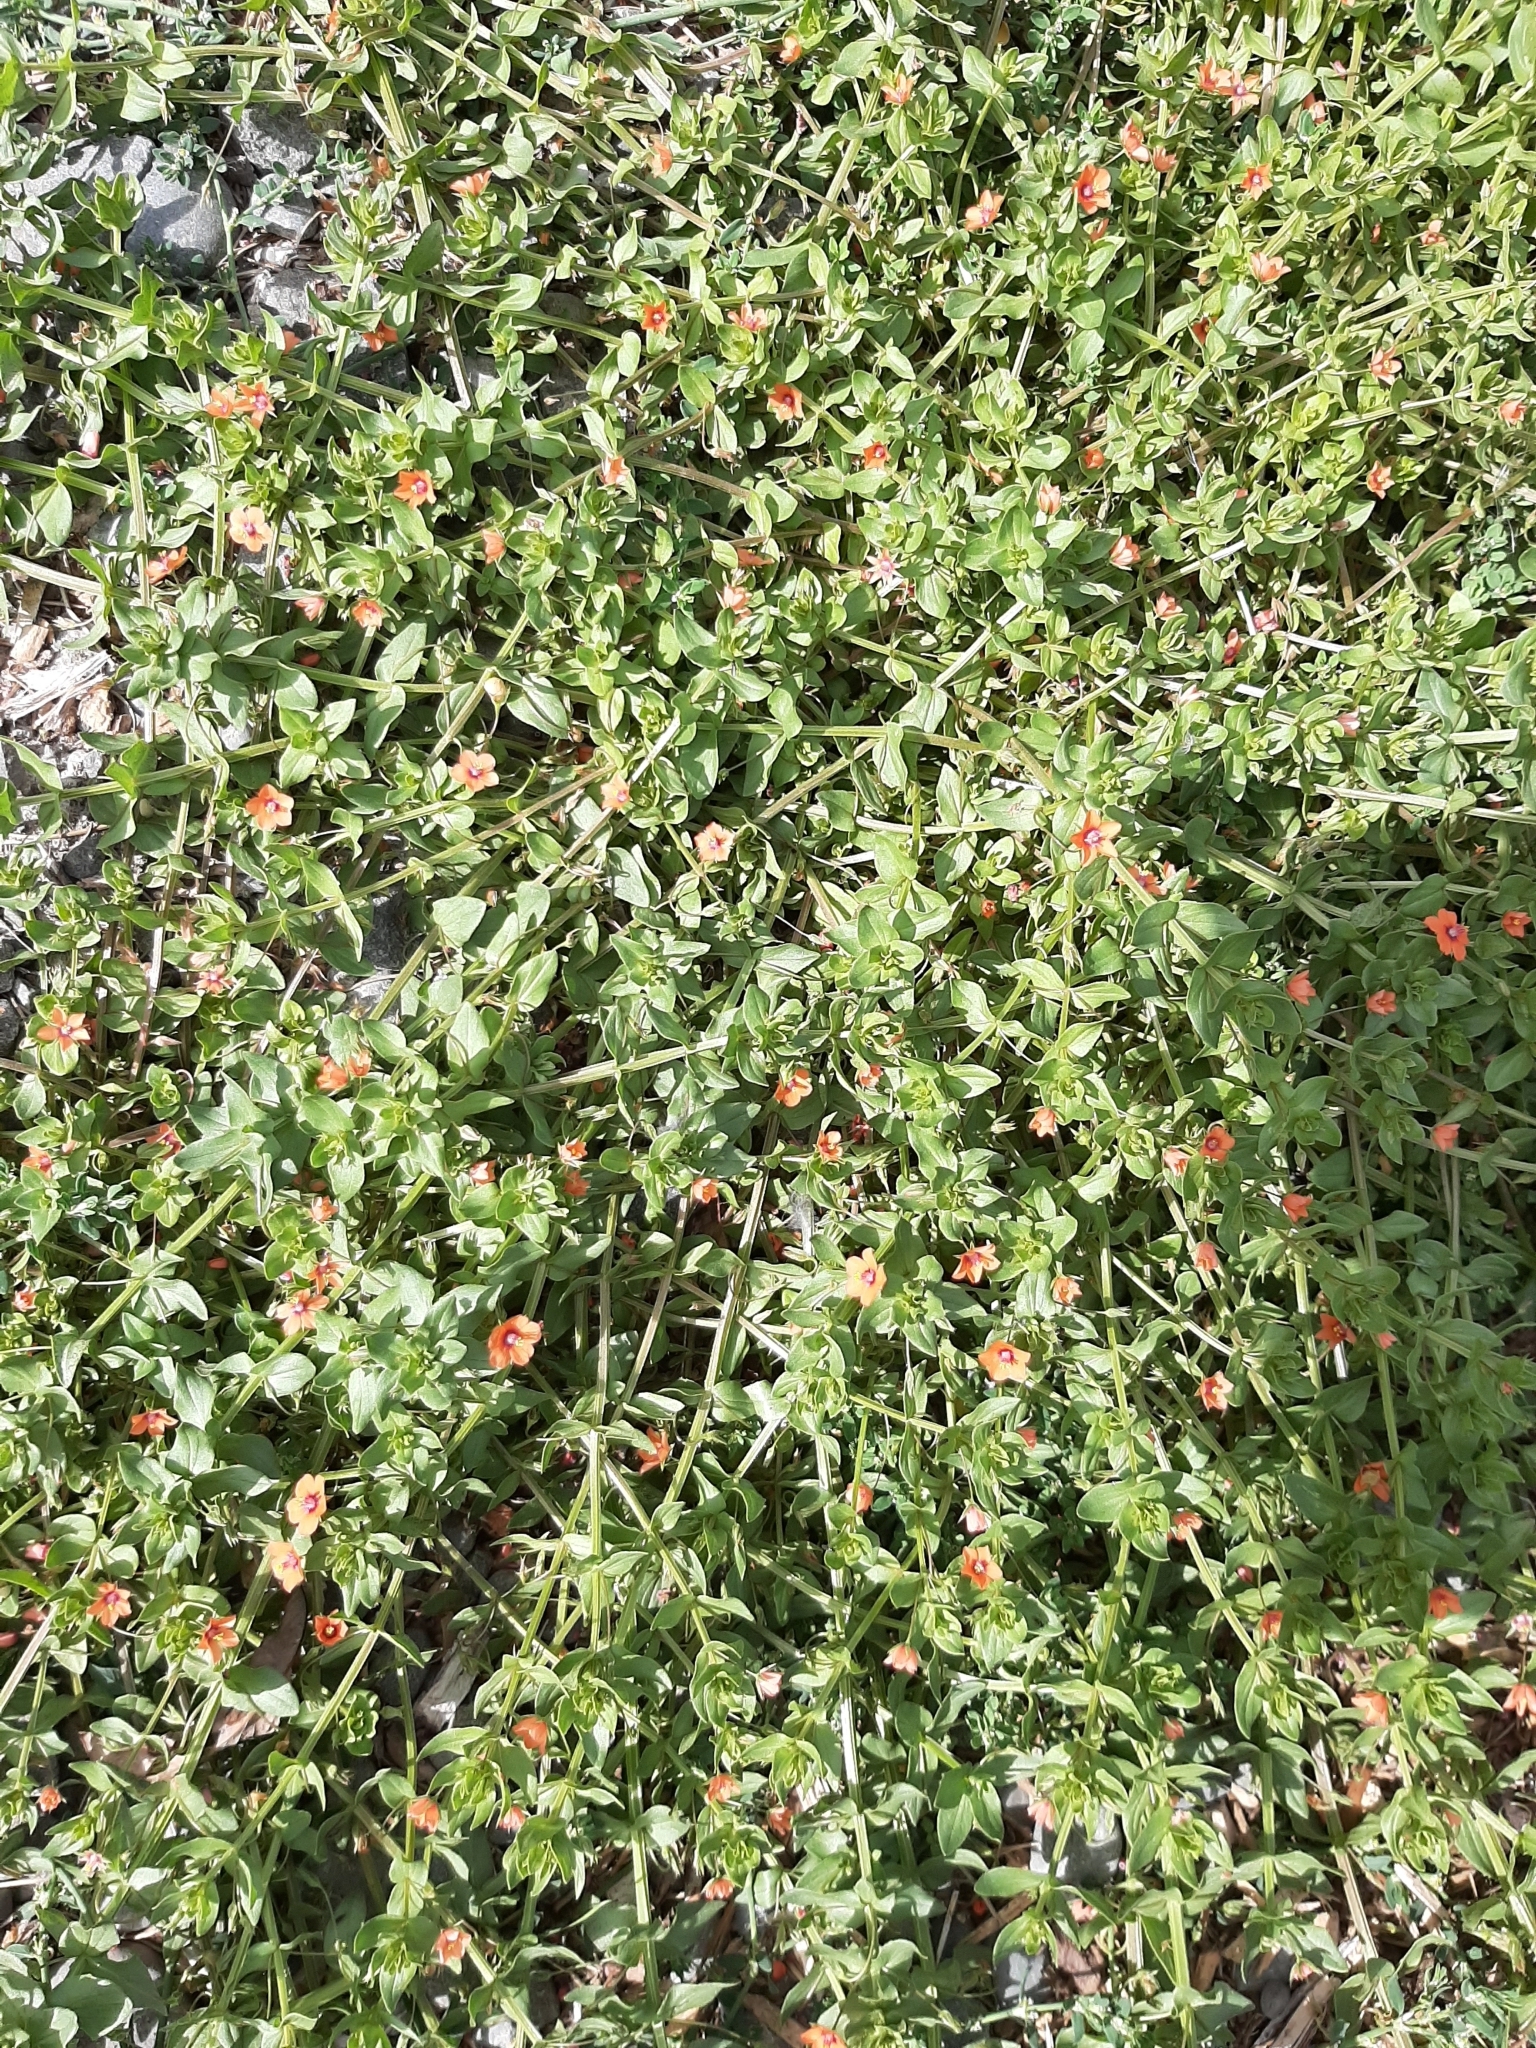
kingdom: Plantae
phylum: Tracheophyta
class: Magnoliopsida
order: Ericales
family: Primulaceae
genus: Lysimachia
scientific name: Lysimachia arvensis
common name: Scarlet pimpernel
